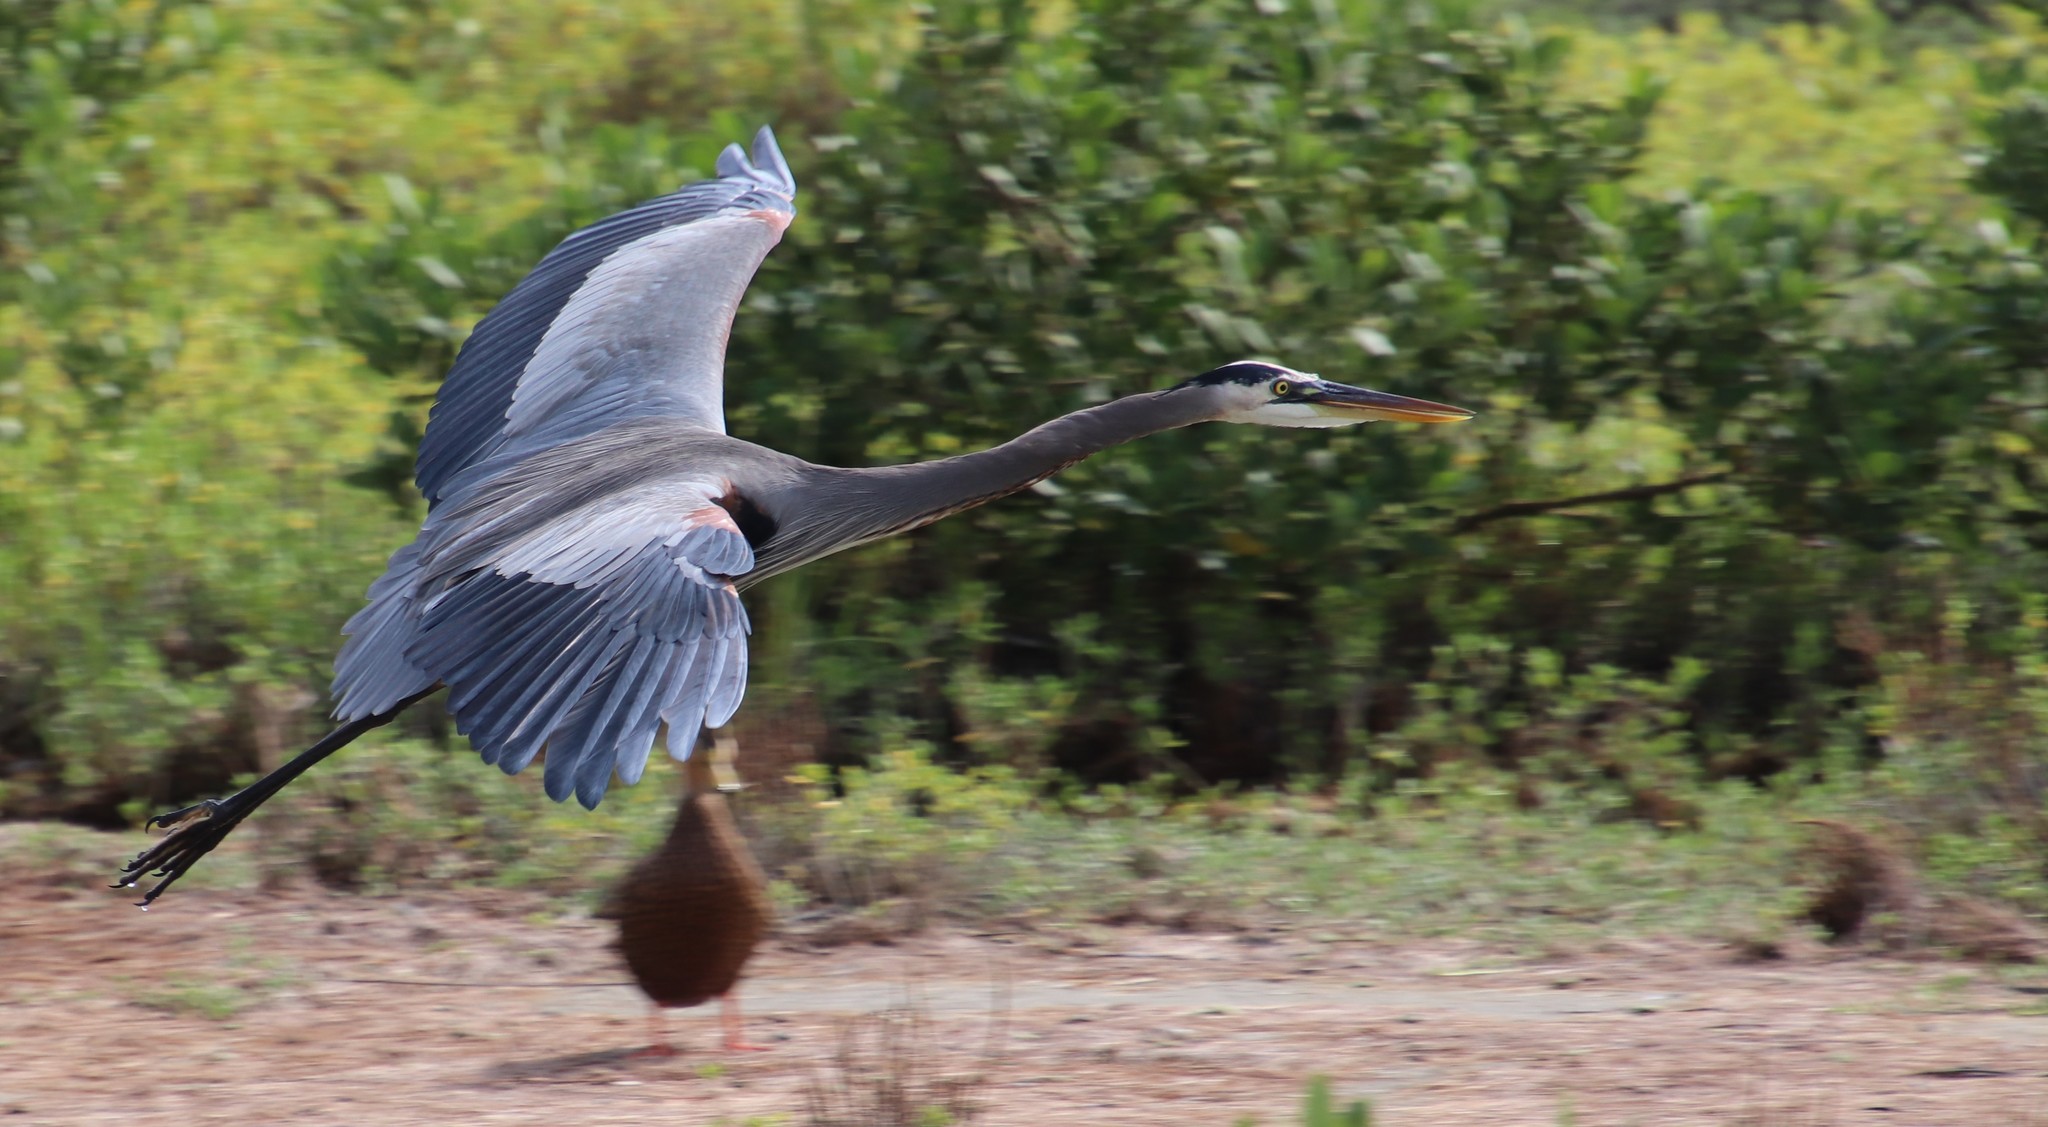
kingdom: Animalia
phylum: Chordata
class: Aves
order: Pelecaniformes
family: Ardeidae
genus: Ardea
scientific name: Ardea herodias
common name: Great blue heron
